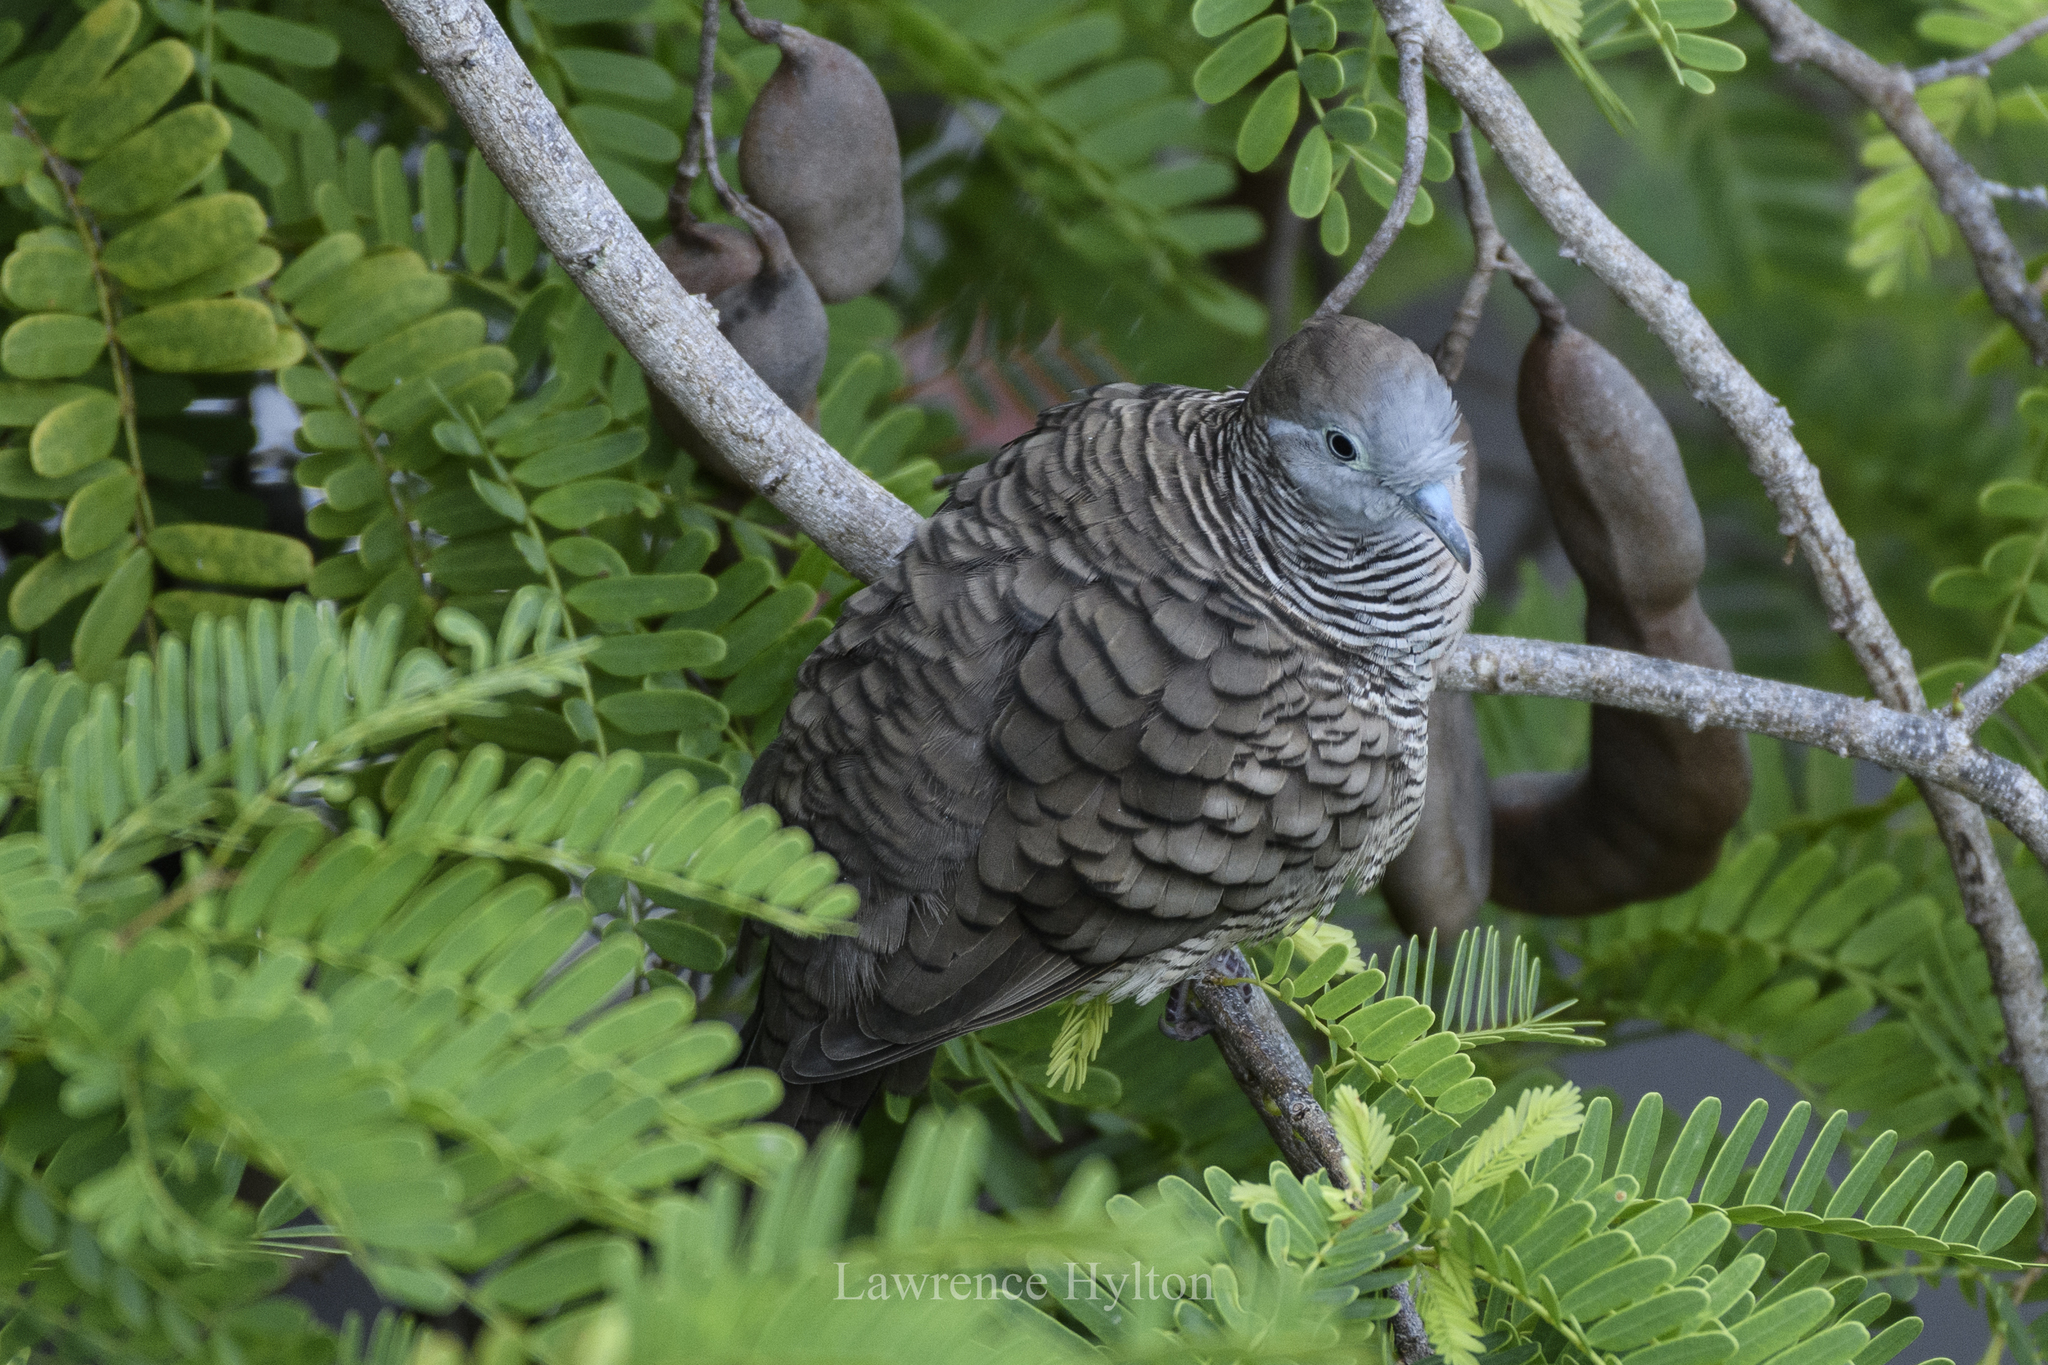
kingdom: Animalia
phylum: Chordata
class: Aves
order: Columbiformes
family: Columbidae
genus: Geopelia
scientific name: Geopelia striata
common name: Zebra dove
